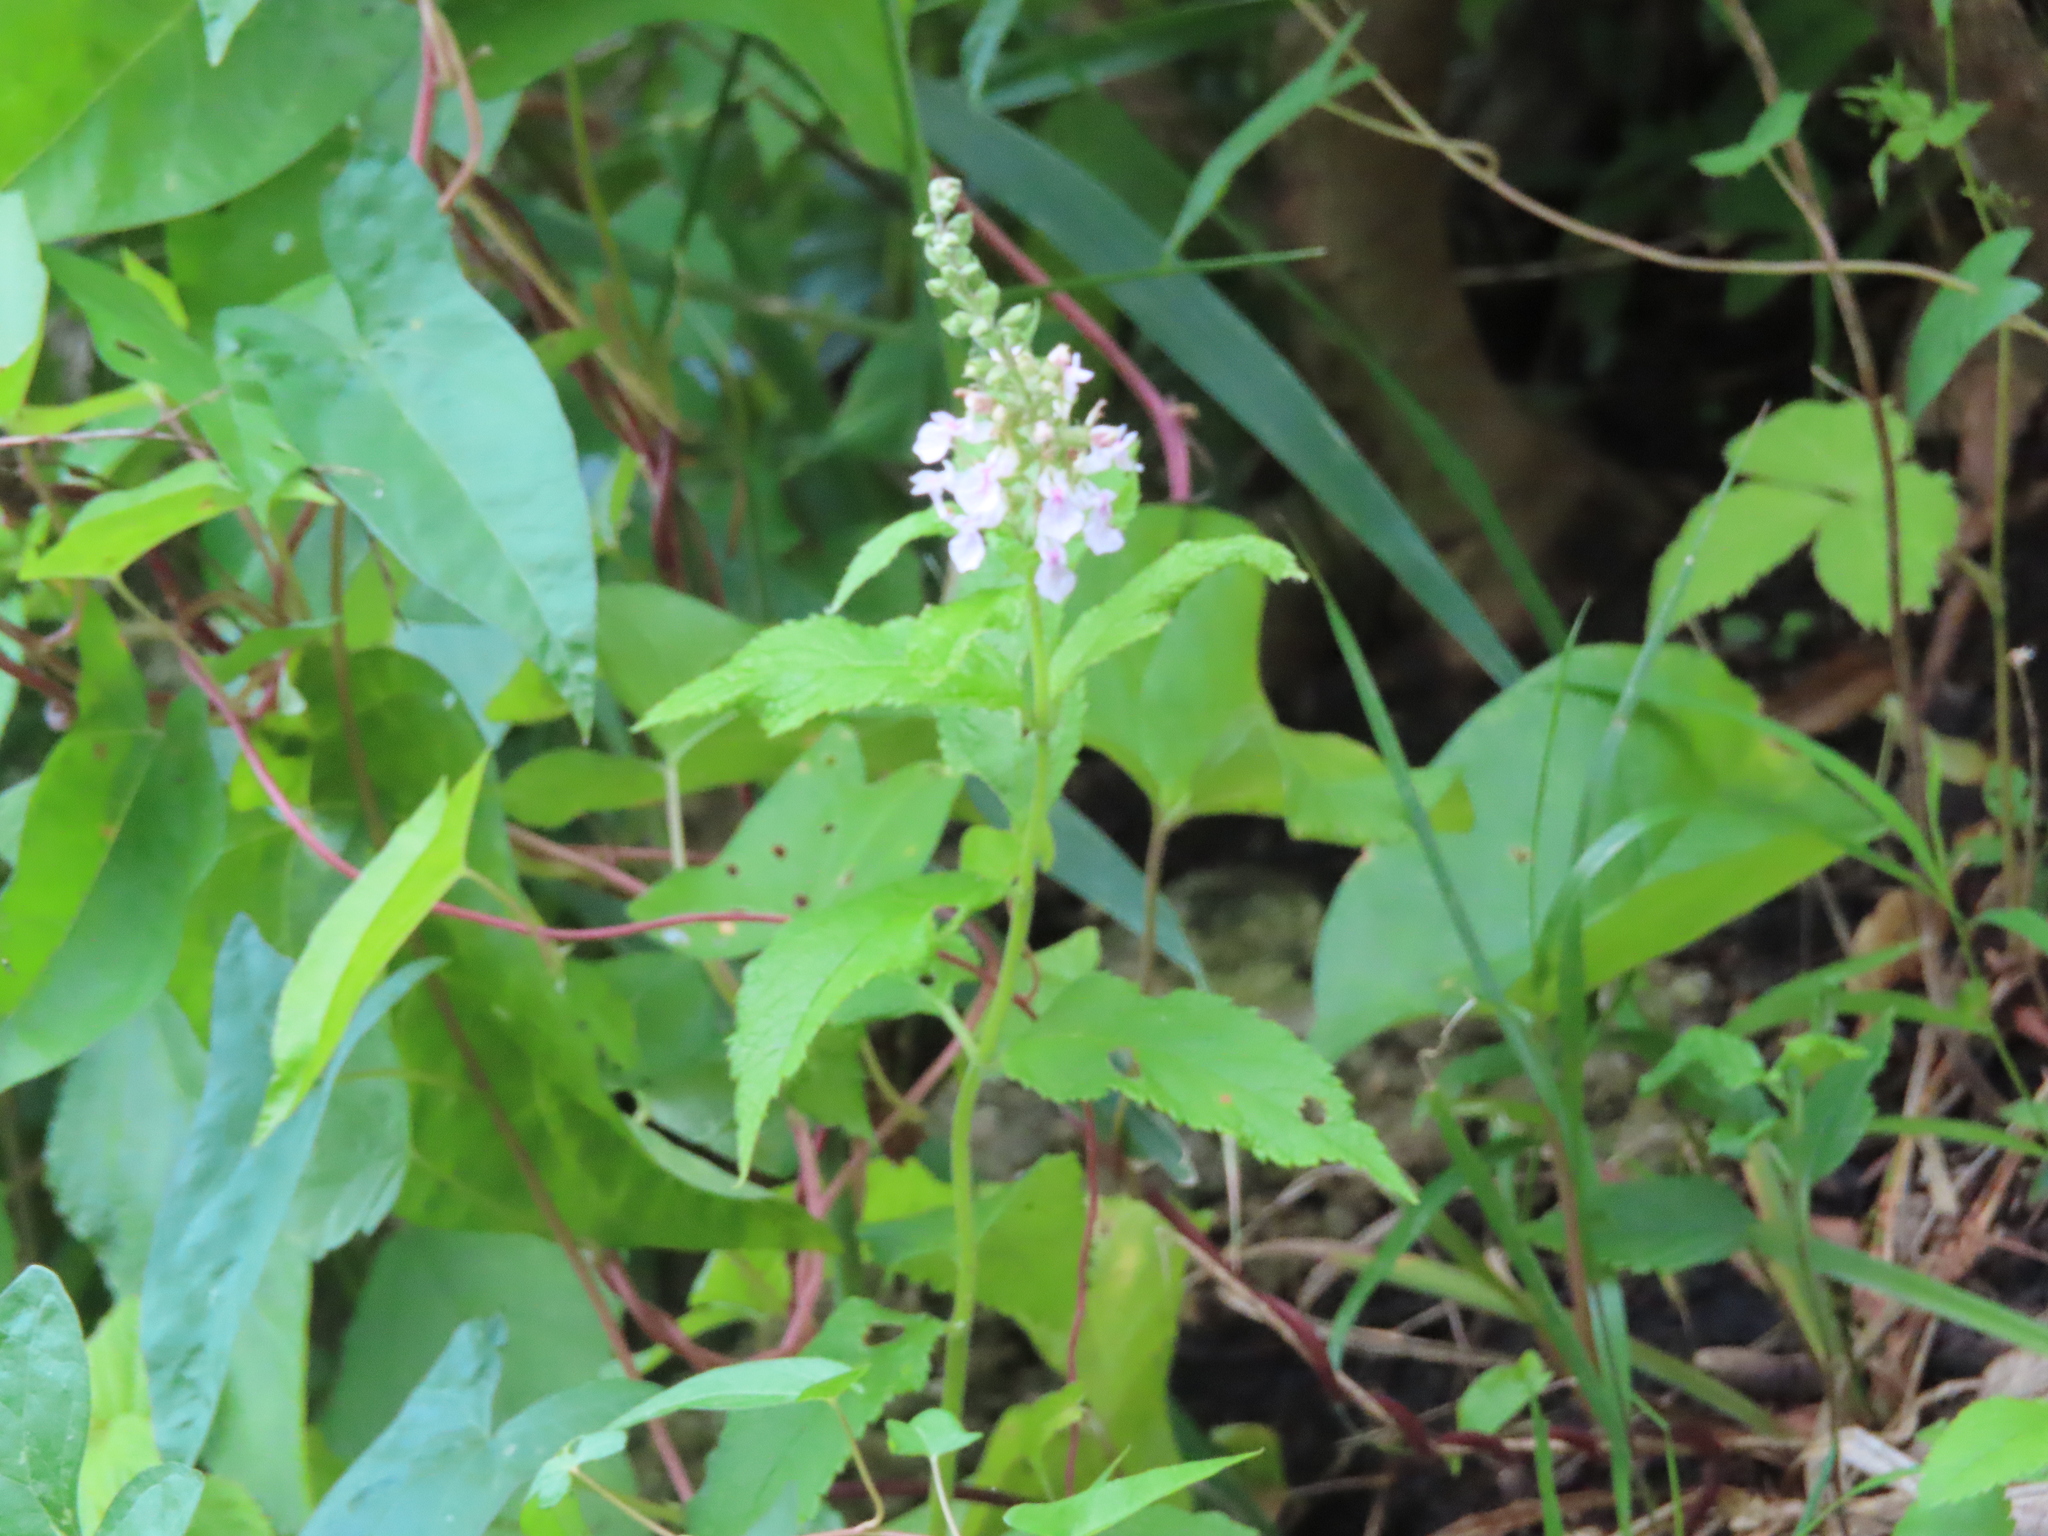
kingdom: Plantae
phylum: Tracheophyta
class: Magnoliopsida
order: Lamiales
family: Lamiaceae
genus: Teucrium
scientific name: Teucrium canadense
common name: American germander
